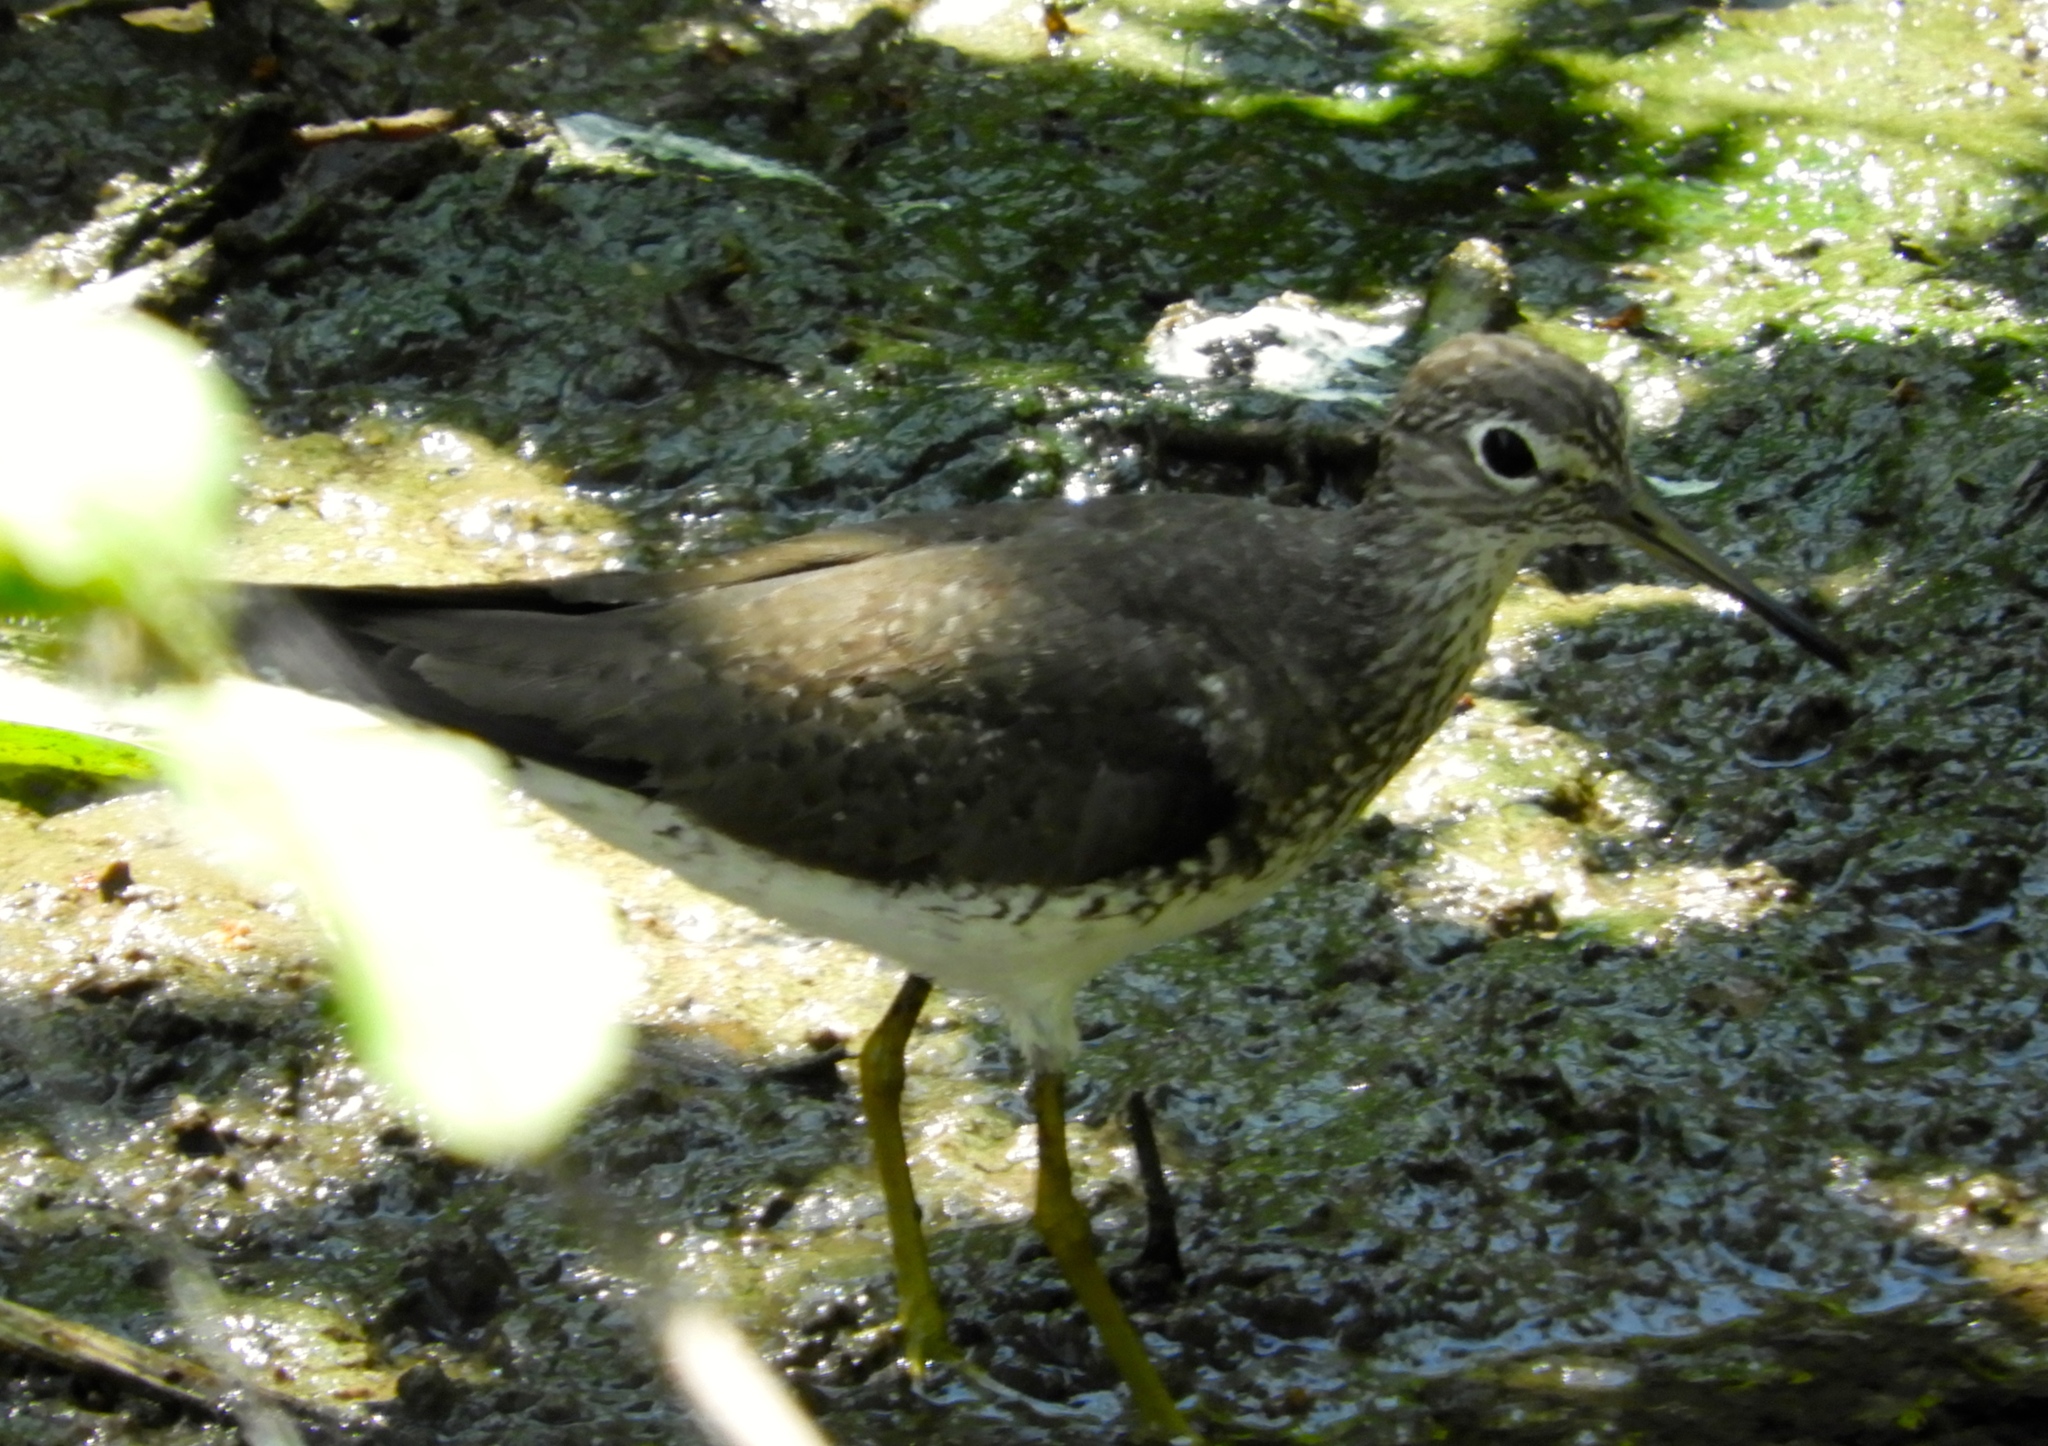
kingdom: Animalia
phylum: Chordata
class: Aves
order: Charadriiformes
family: Scolopacidae
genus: Tringa
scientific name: Tringa solitaria
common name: Solitary sandpiper
